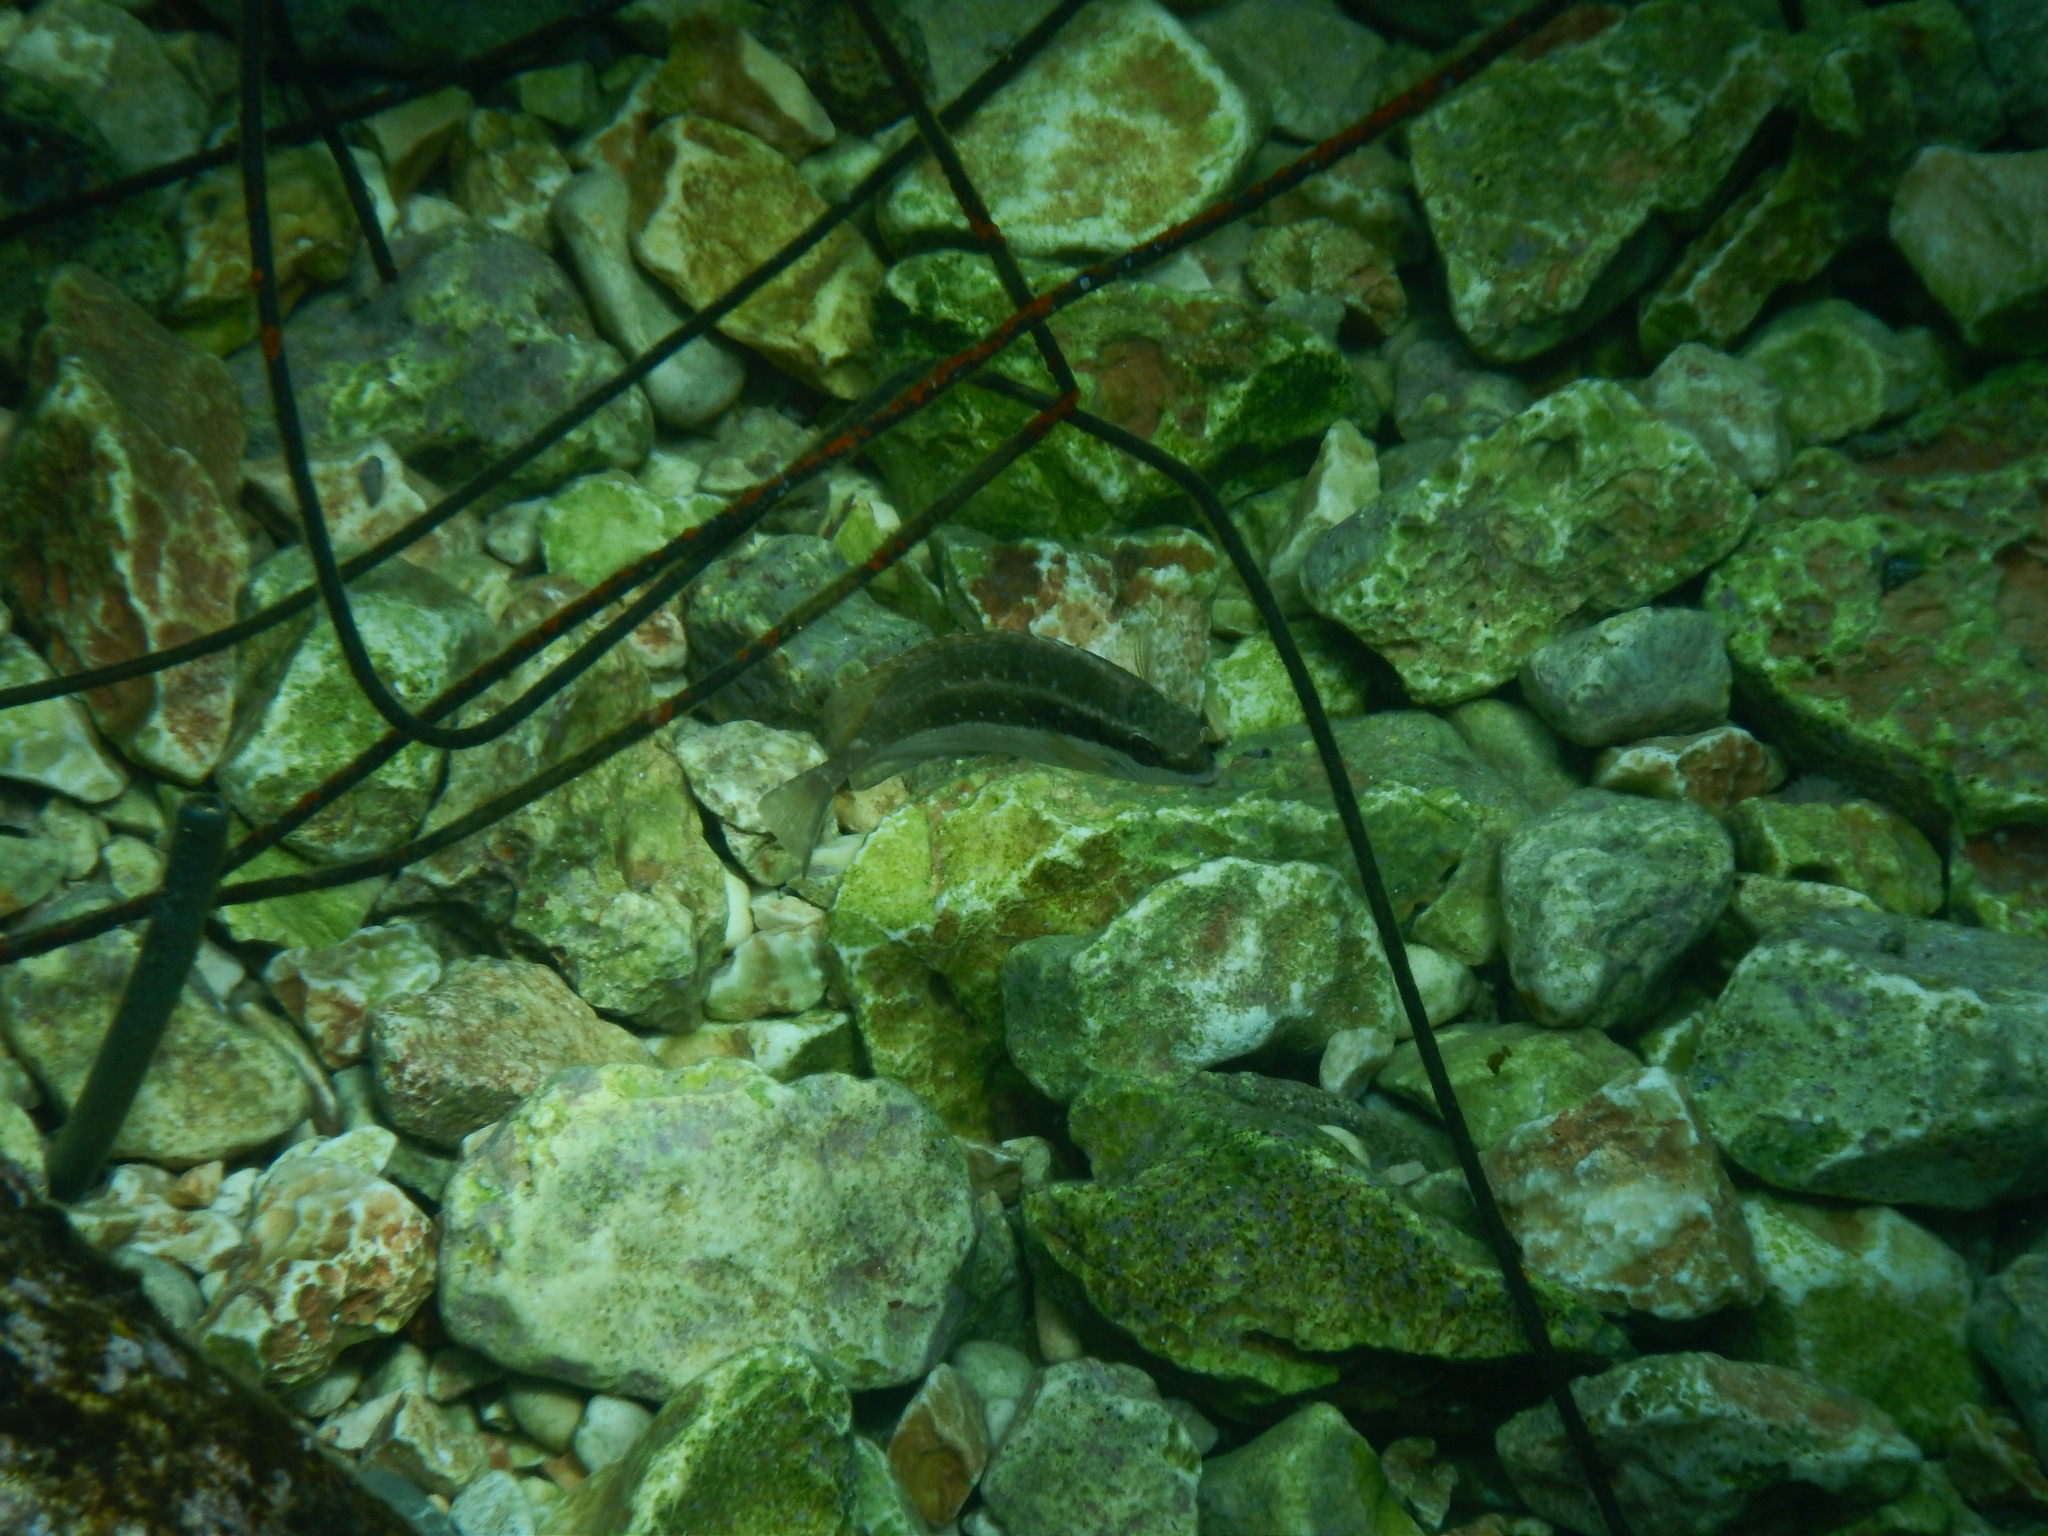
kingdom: Animalia
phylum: Chordata
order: Perciformes
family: Siganidae
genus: Siganus
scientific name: Siganus luridus
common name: Dusky spinefoot
